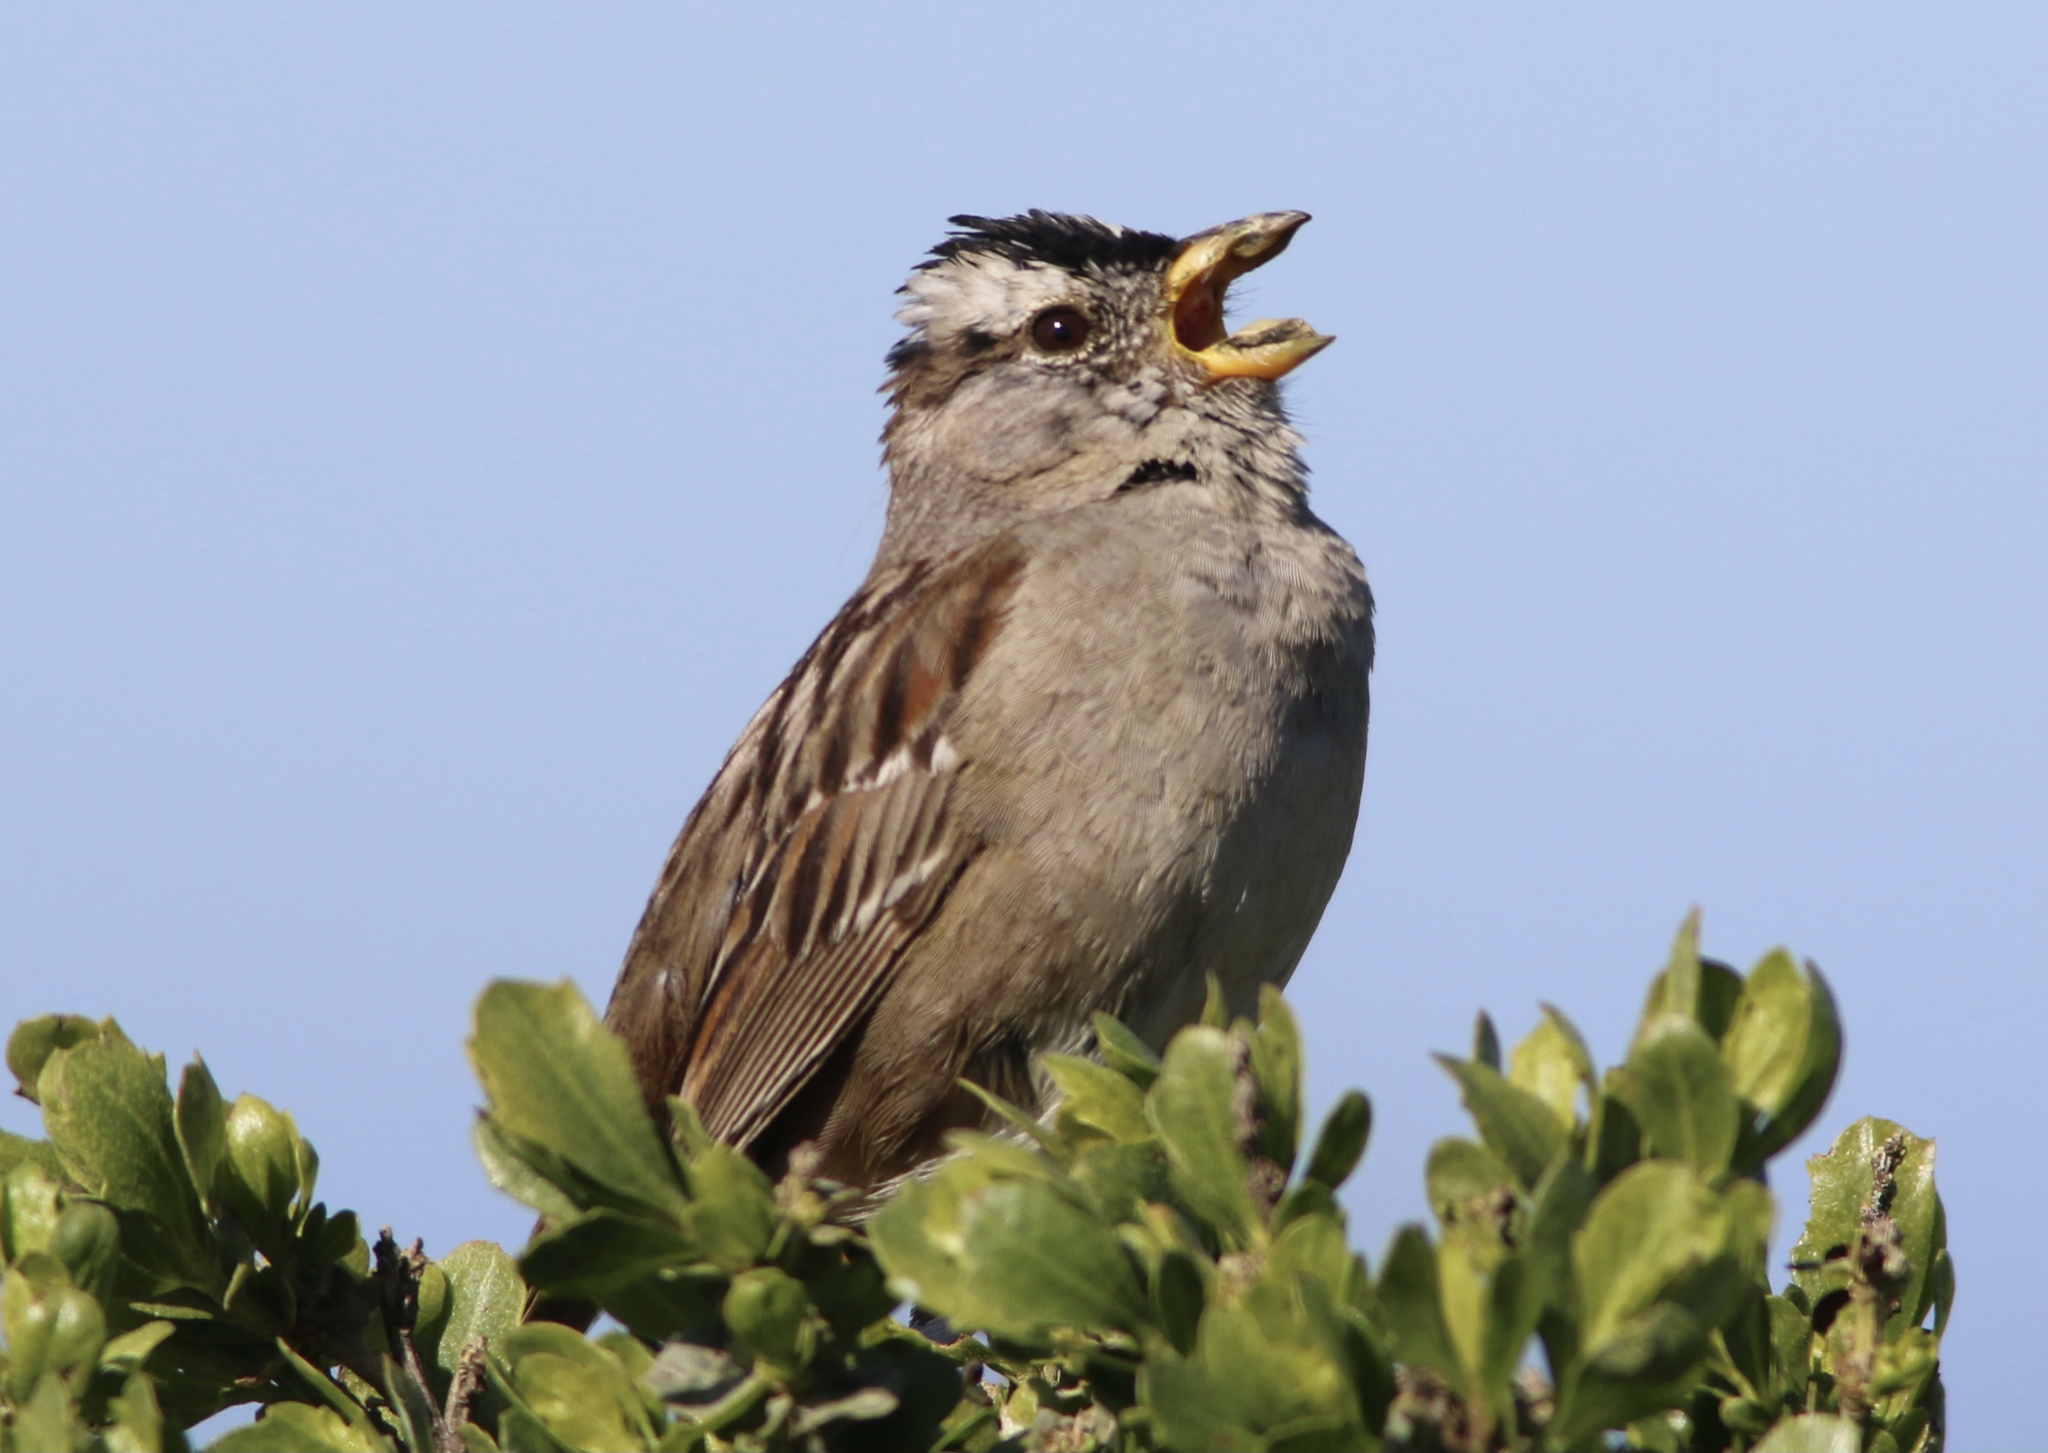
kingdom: Animalia
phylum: Chordata
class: Aves
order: Passeriformes
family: Passerellidae
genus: Zonotrichia
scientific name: Zonotrichia leucophrys
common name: White-crowned sparrow
